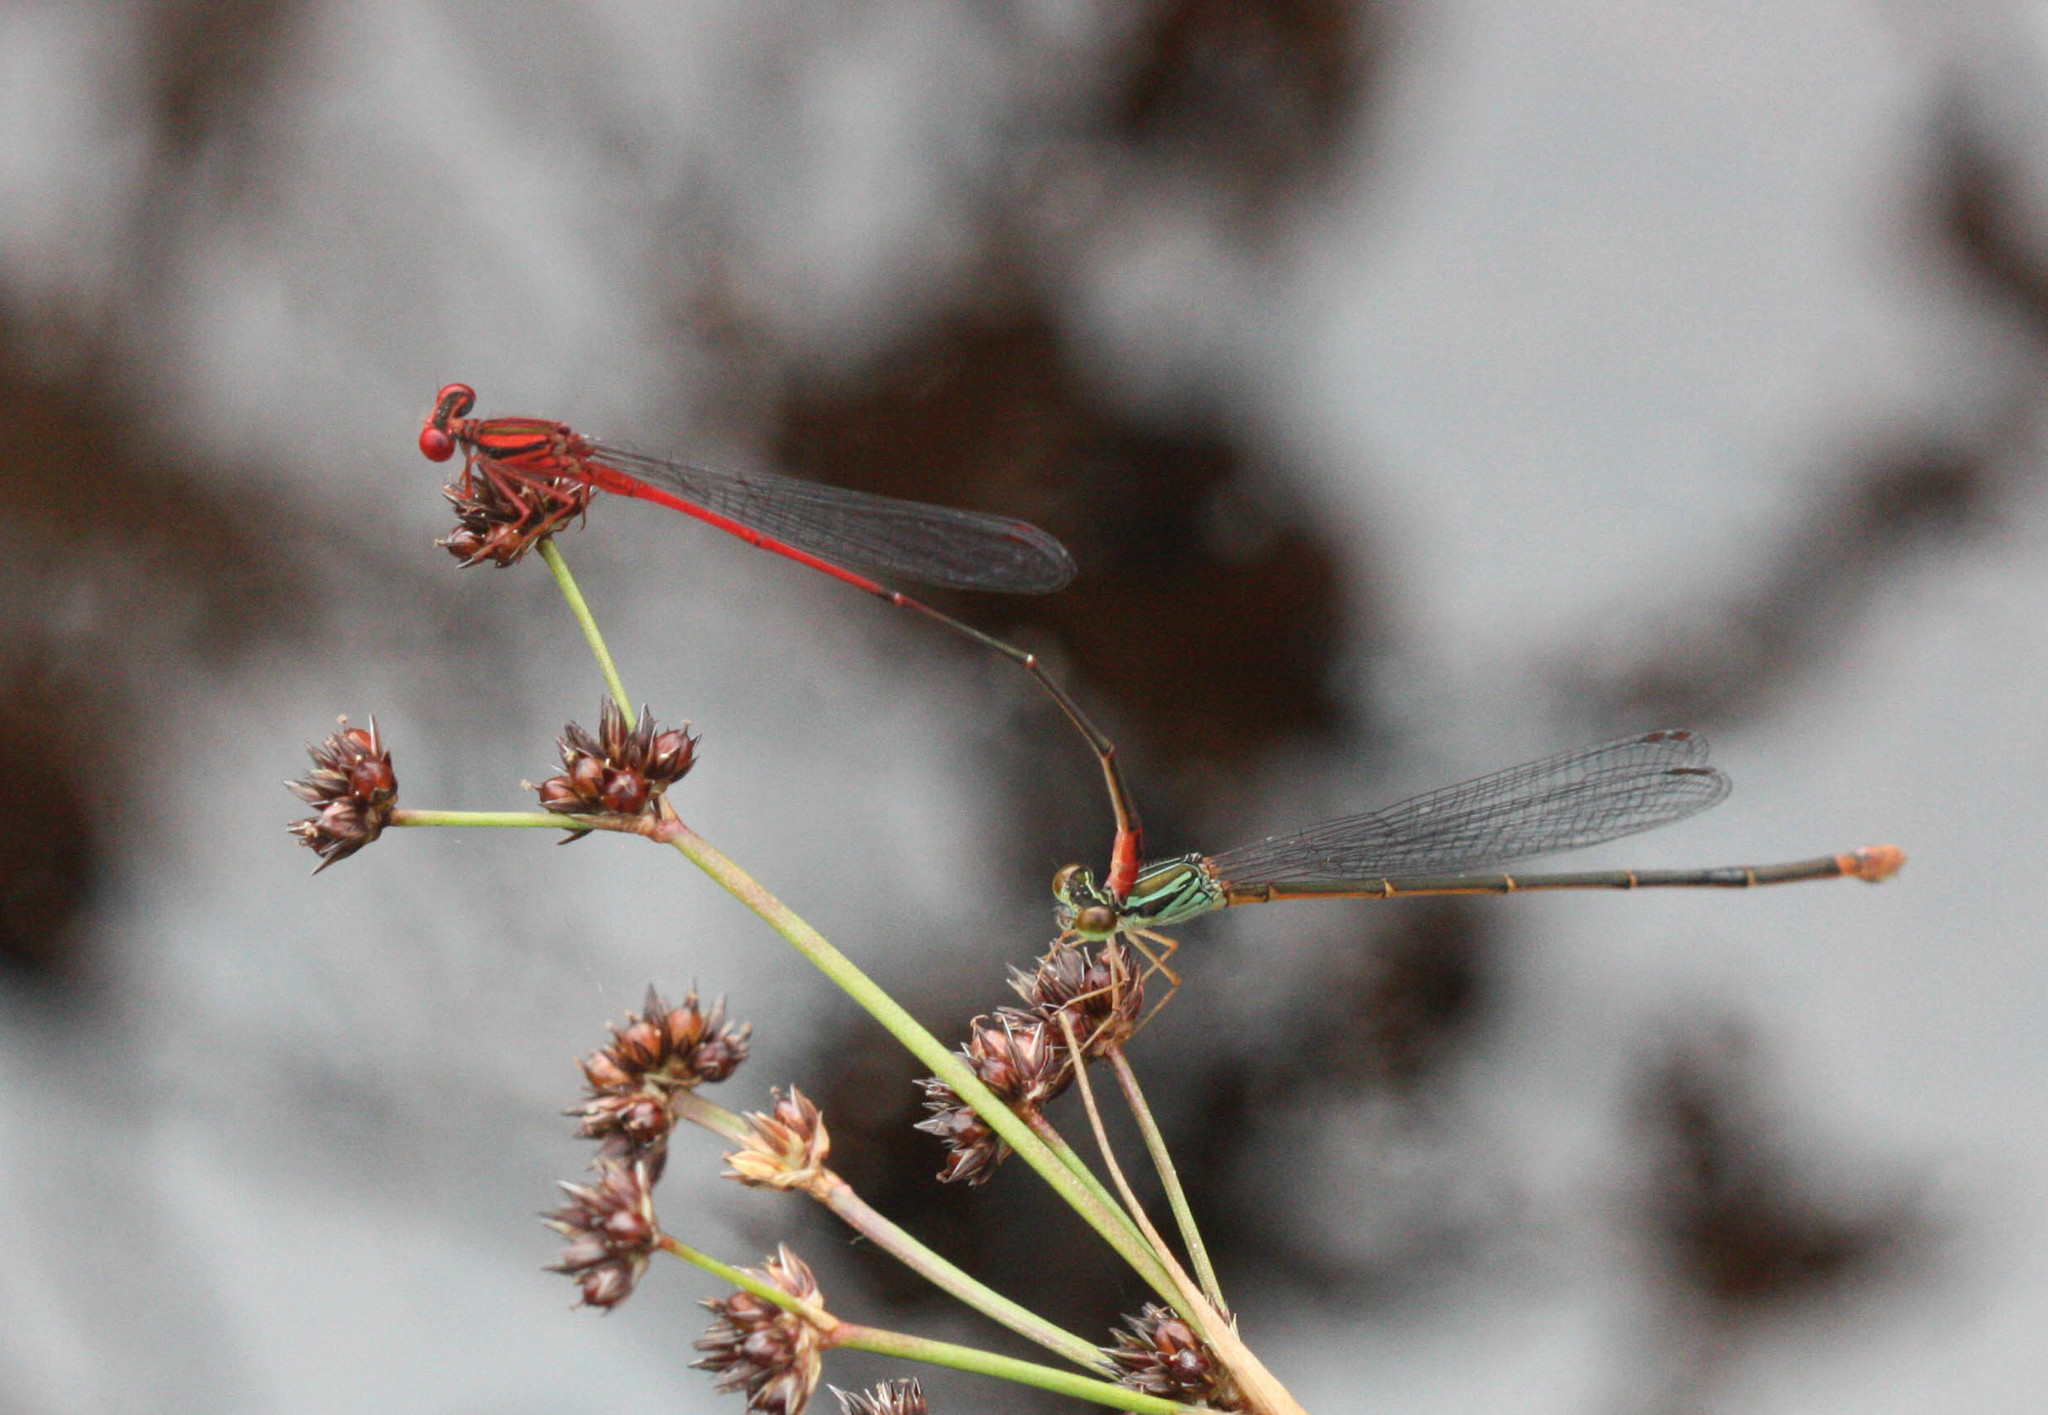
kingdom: Animalia
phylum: Arthropoda
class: Insecta
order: Odonata
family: Coenagrionidae
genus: Megalagrion
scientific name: Megalagrion oresitrophum
